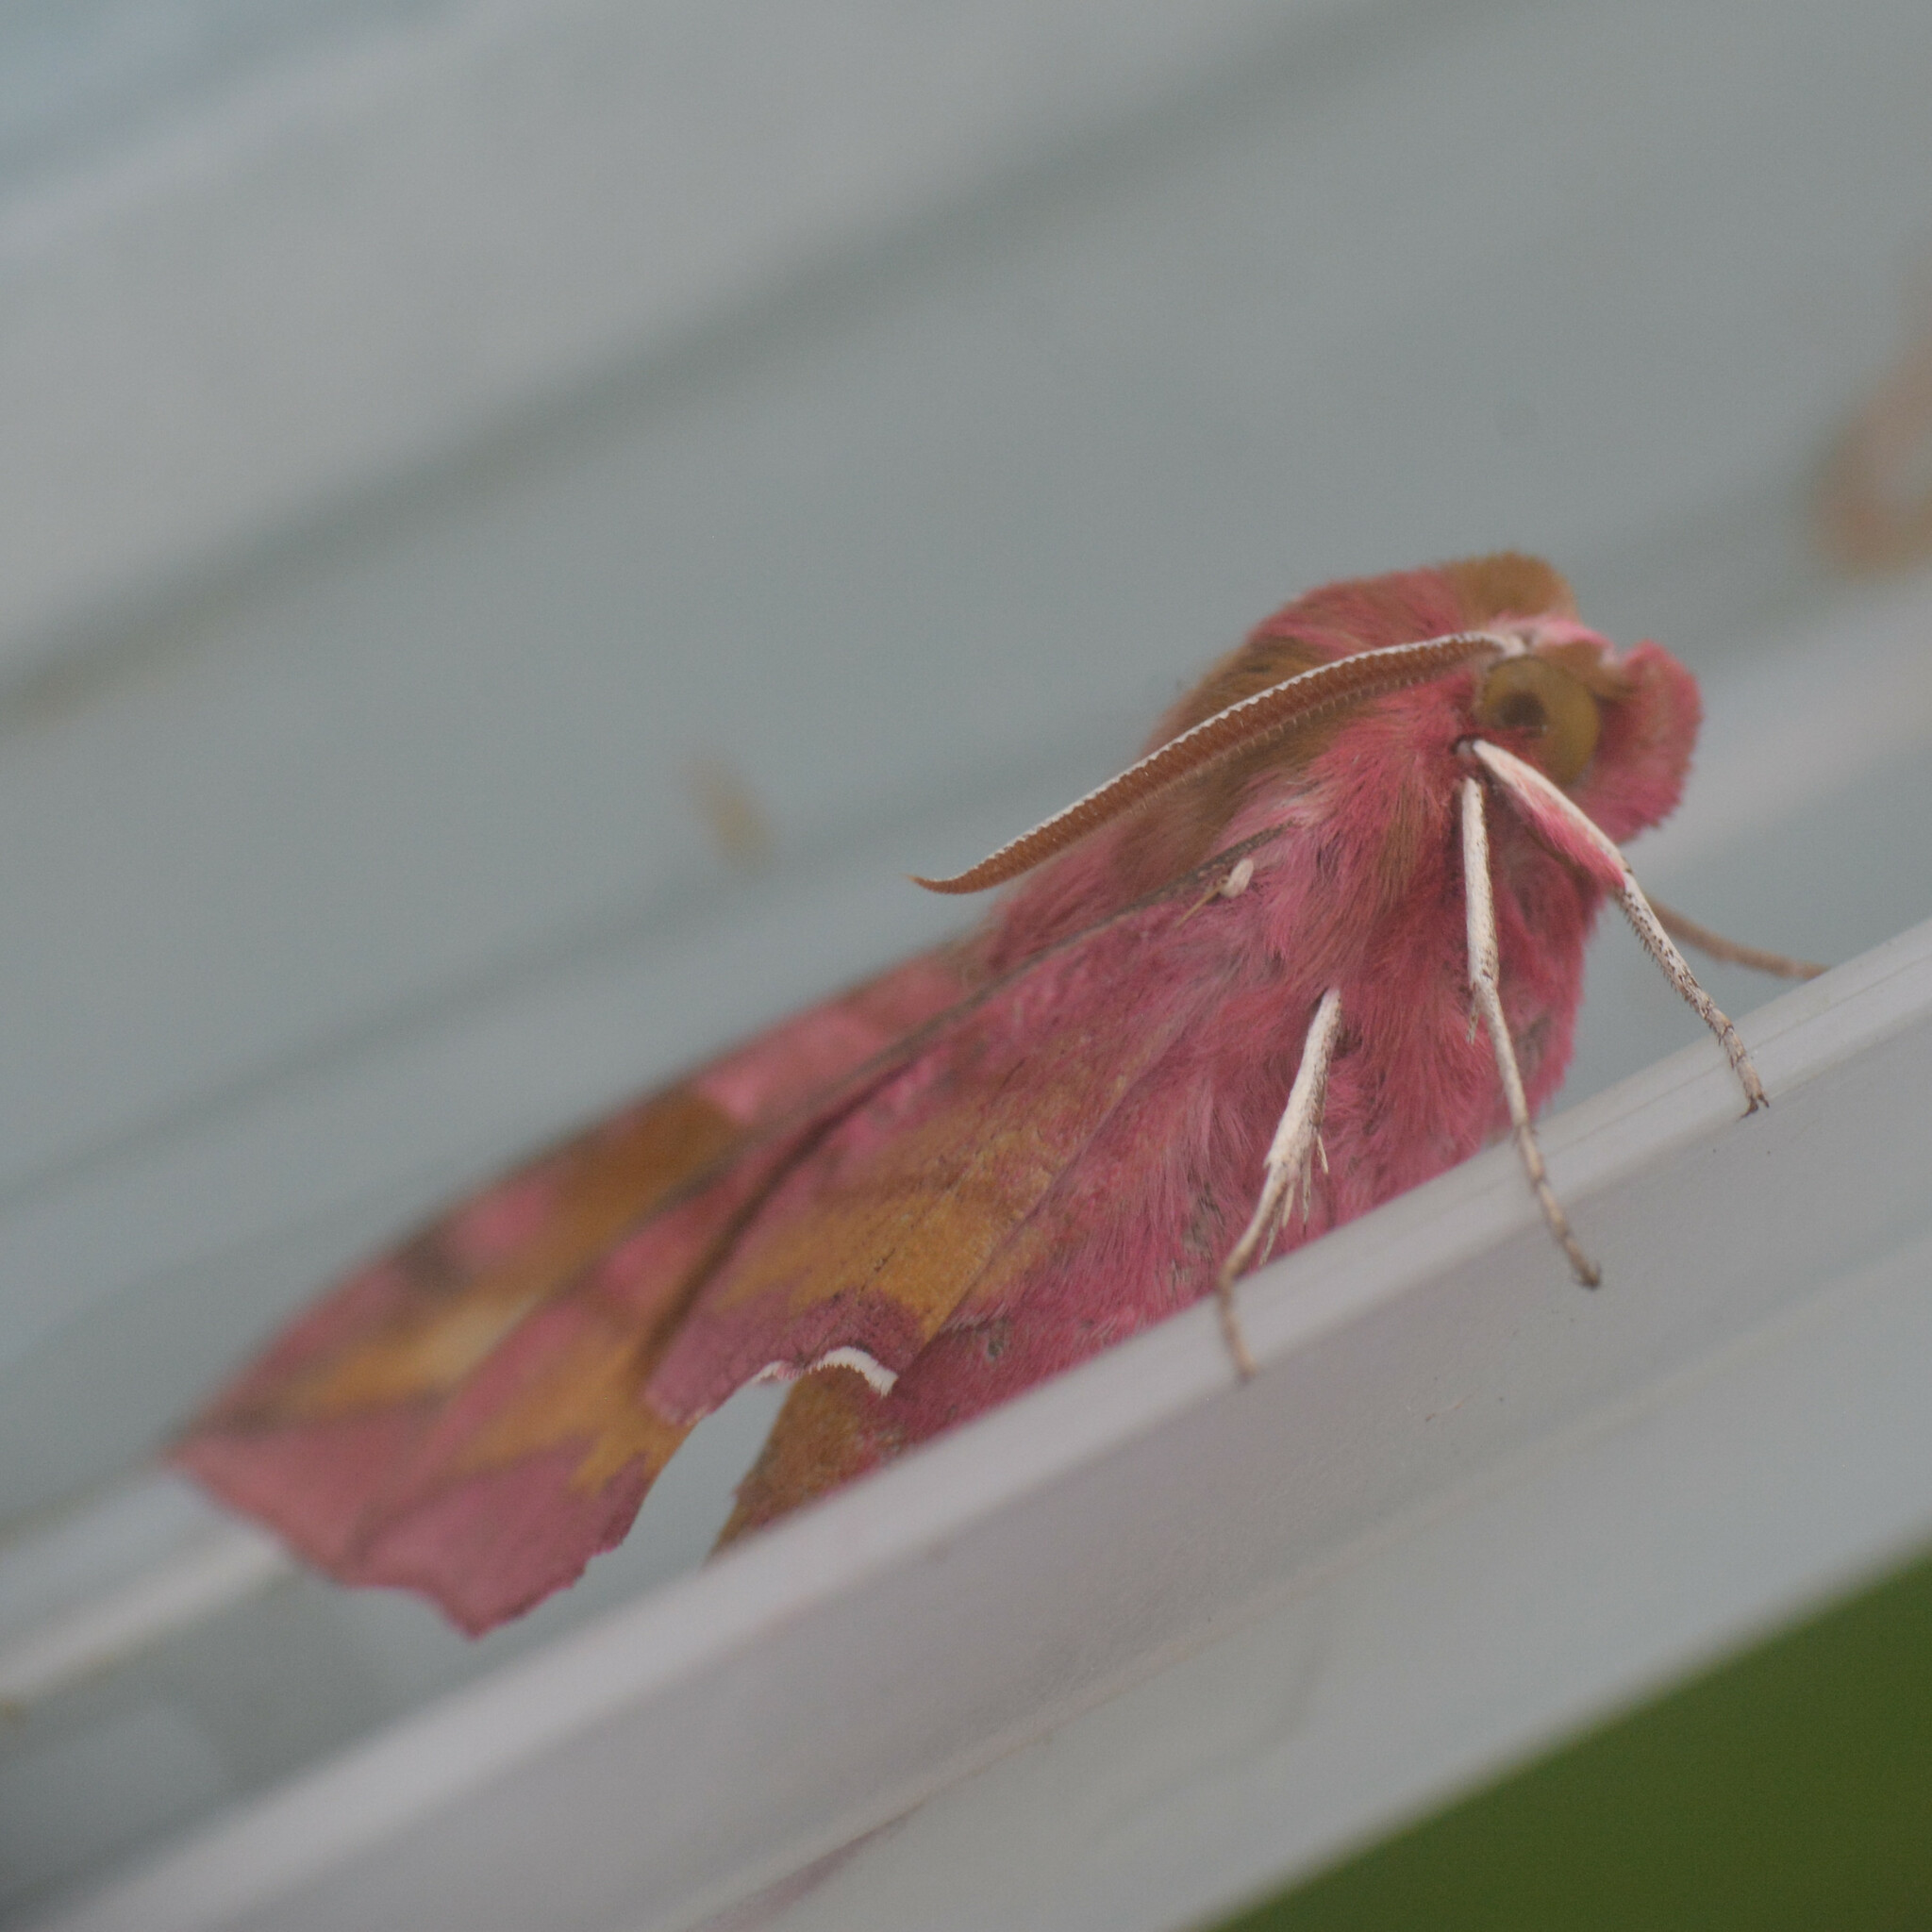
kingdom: Animalia
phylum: Arthropoda
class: Insecta
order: Lepidoptera
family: Sphingidae
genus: Deilephila
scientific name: Deilephila porcellus
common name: Small elephant hawk-moth
